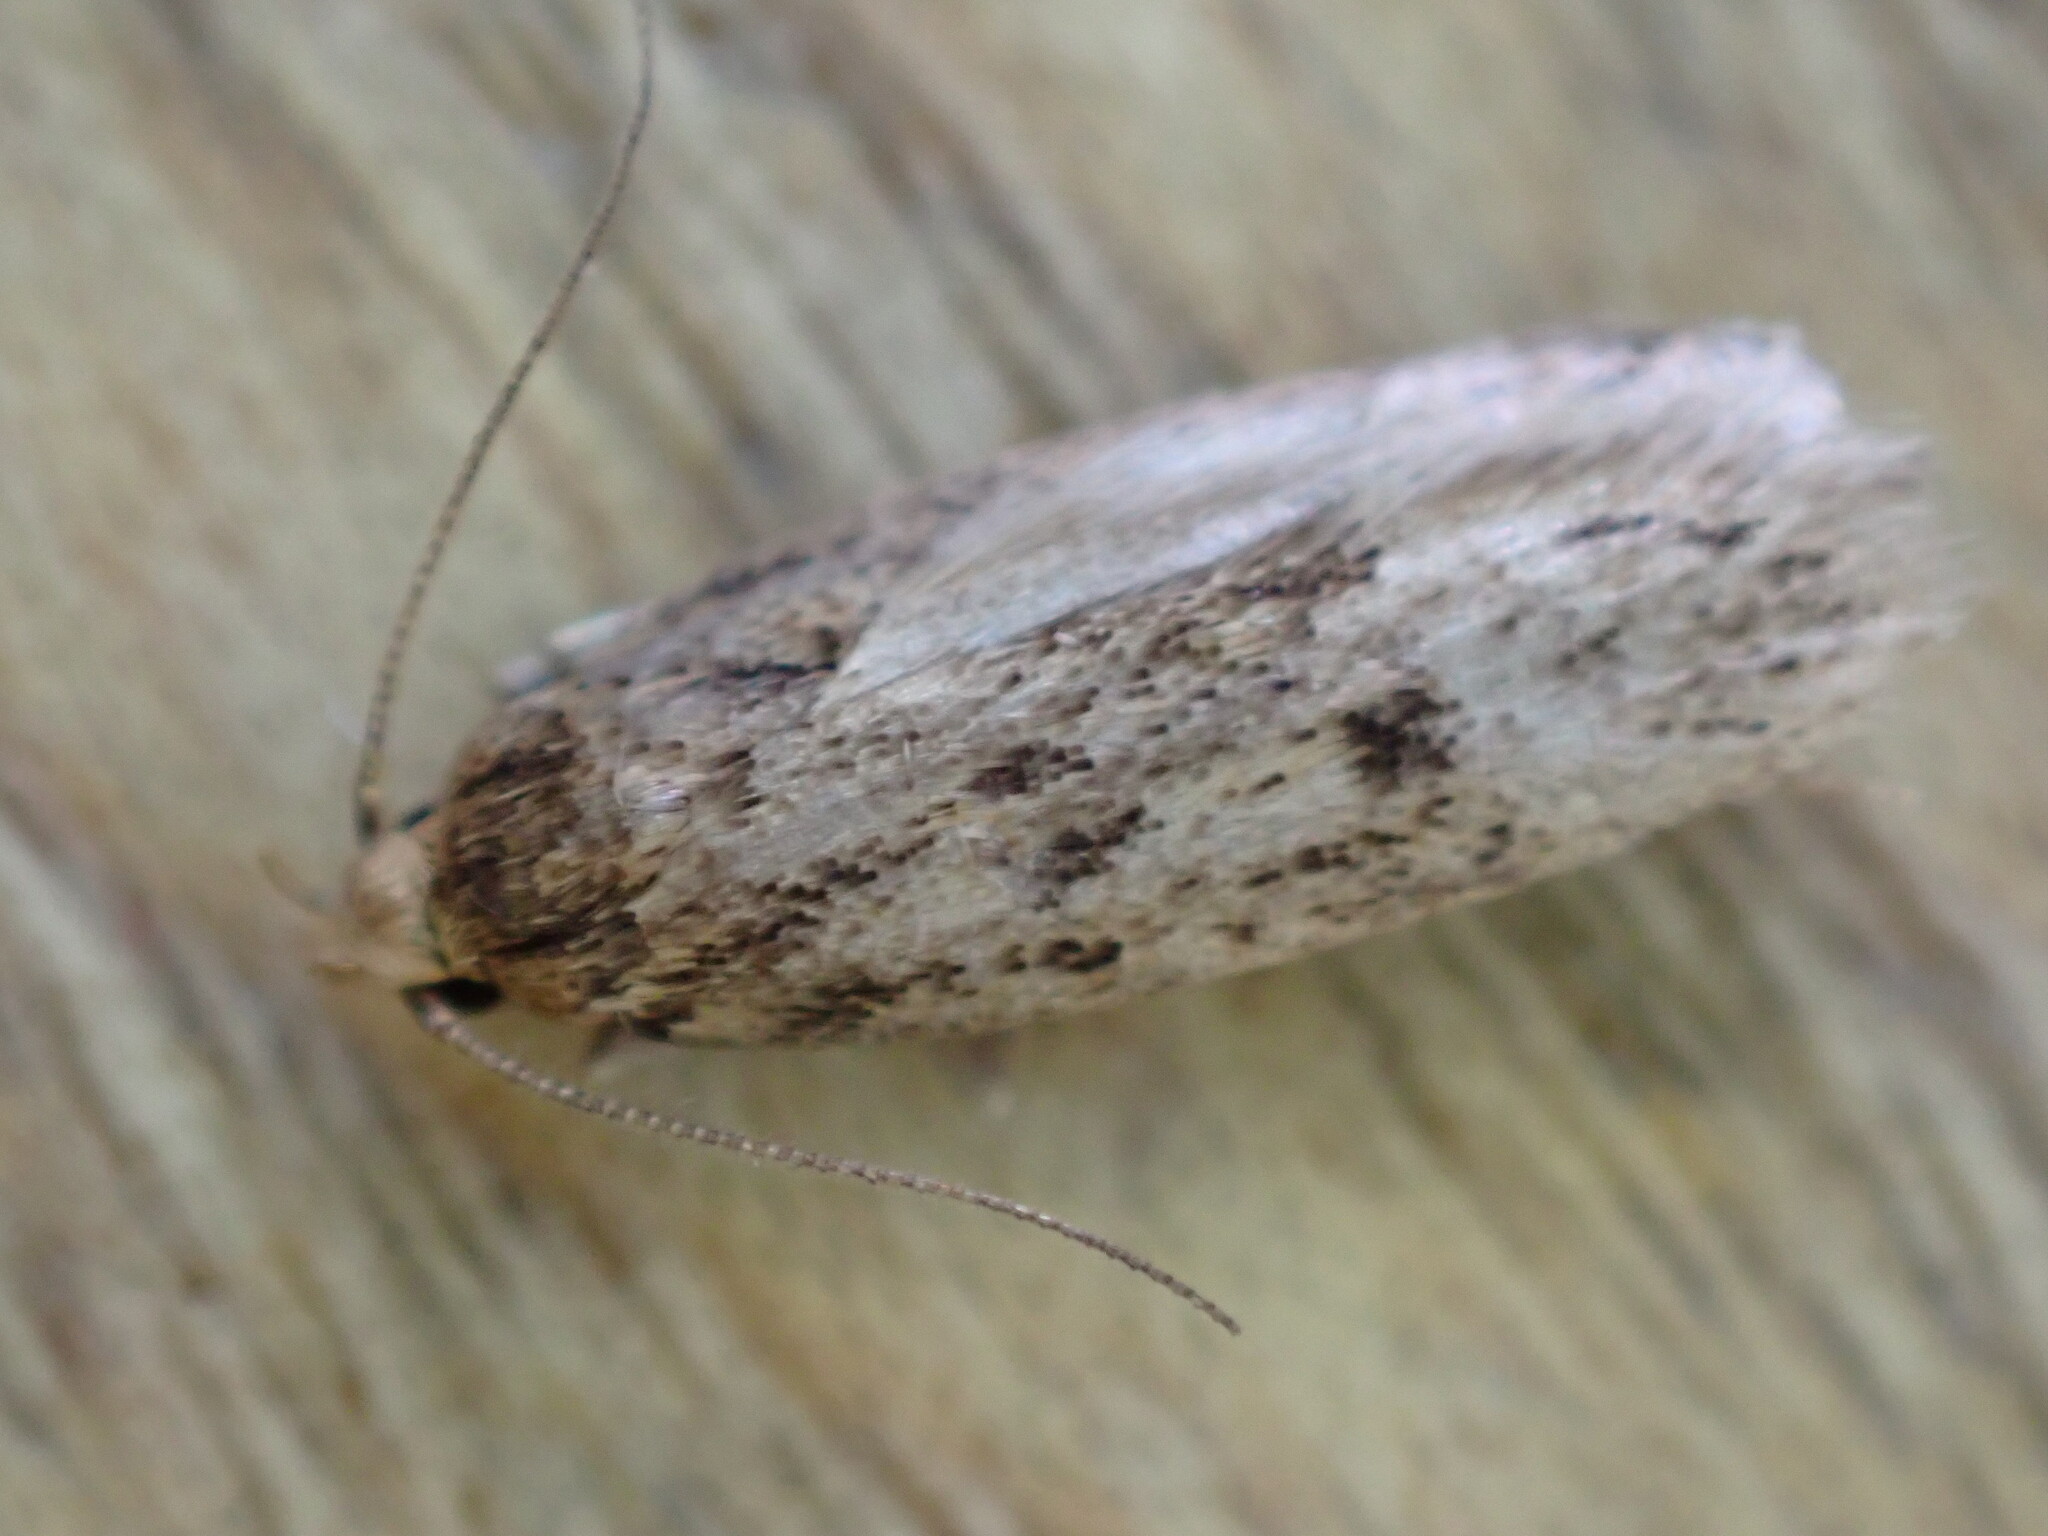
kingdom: Animalia
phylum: Arthropoda
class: Insecta
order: Lepidoptera
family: Oecophoridae
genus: Hofmannophila
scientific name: Hofmannophila pseudospretella
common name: Brown house moth
